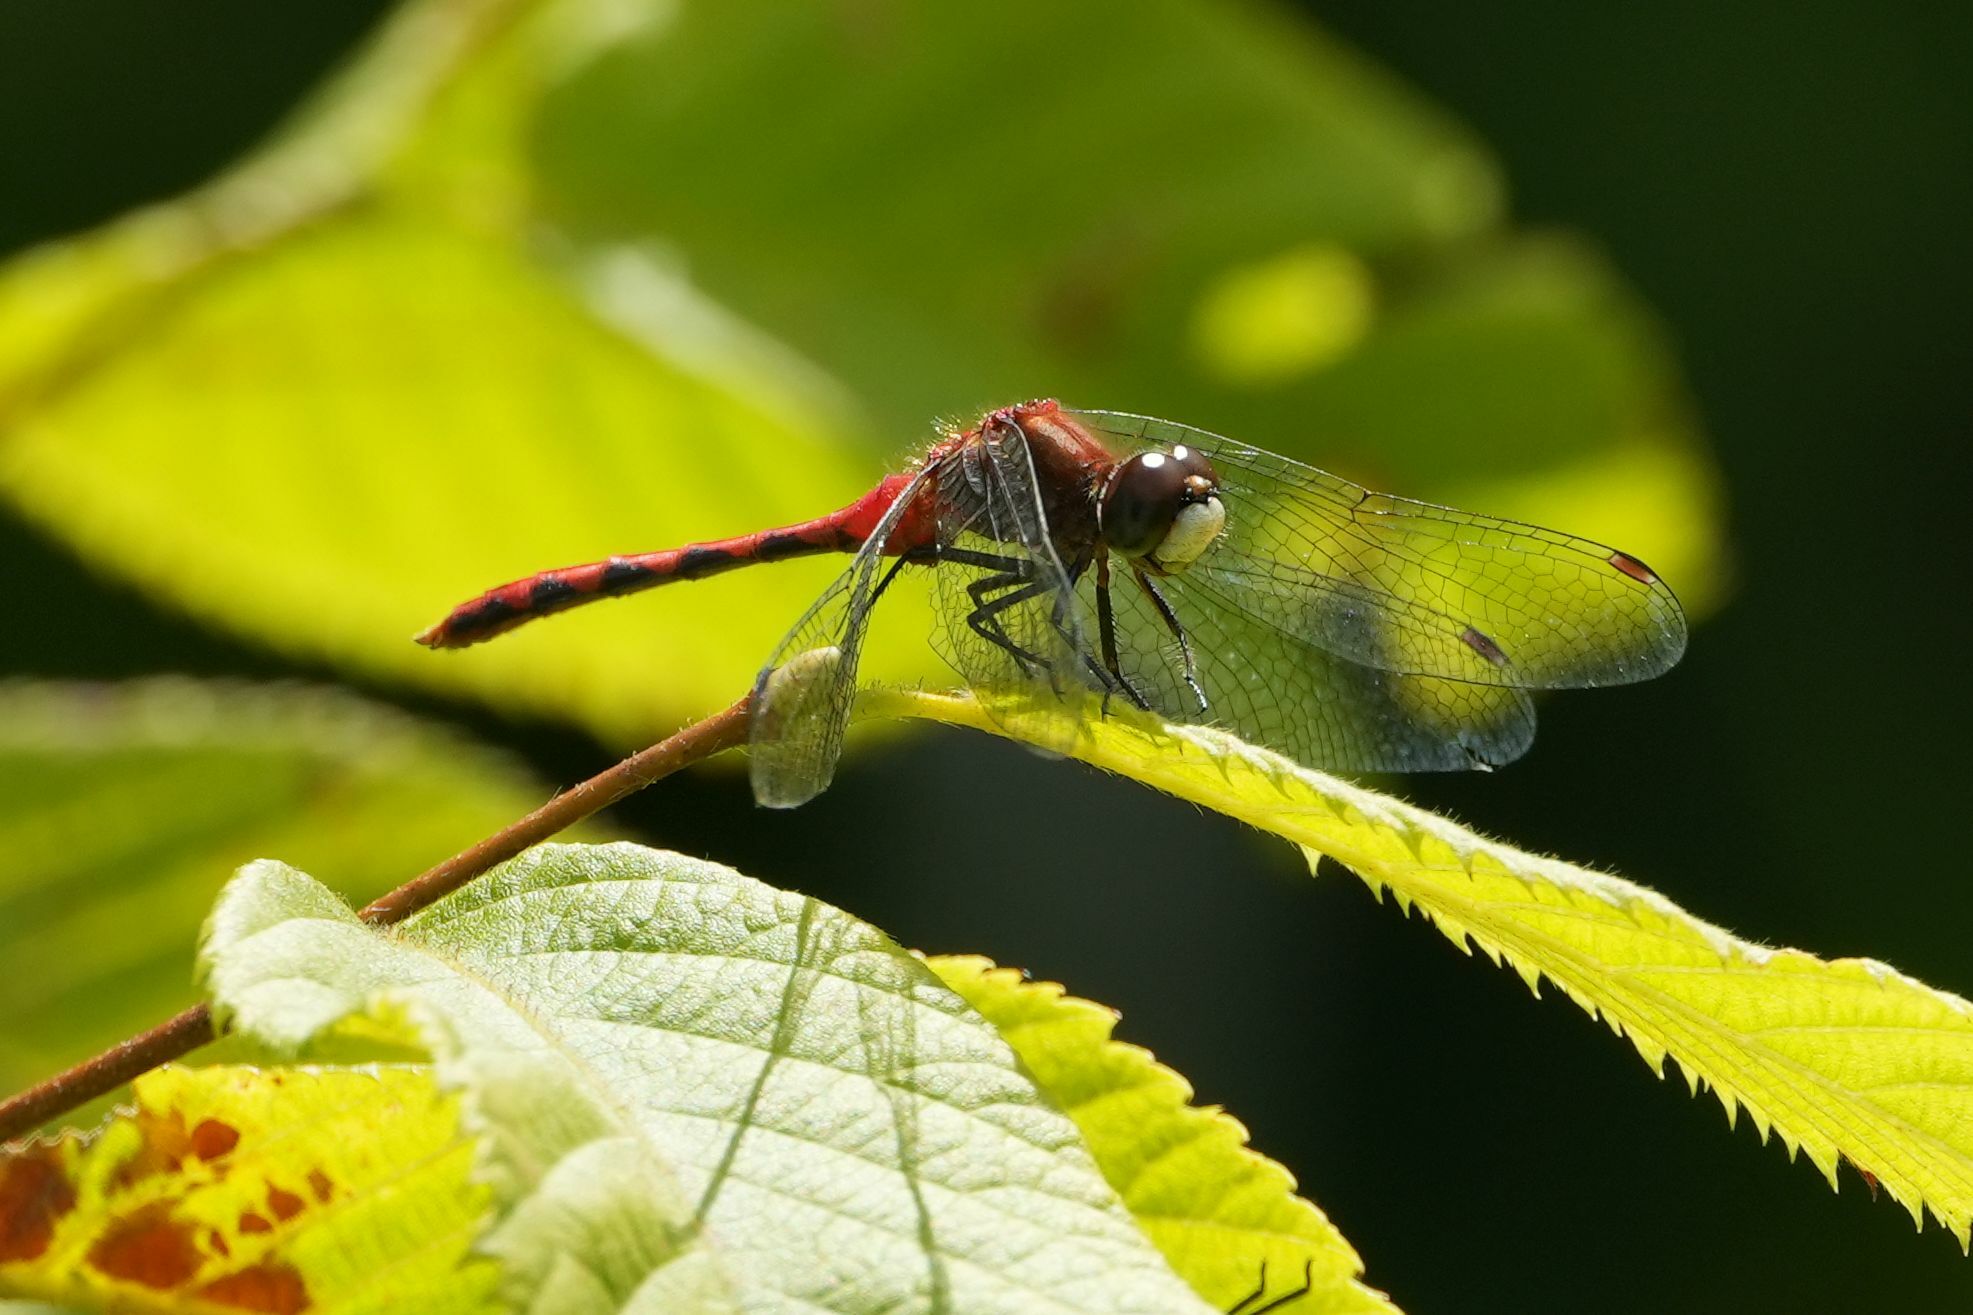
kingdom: Animalia
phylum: Arthropoda
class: Insecta
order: Odonata
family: Libellulidae
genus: Sympetrum
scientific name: Sympetrum obtrusum
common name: White-faced meadowhawk
